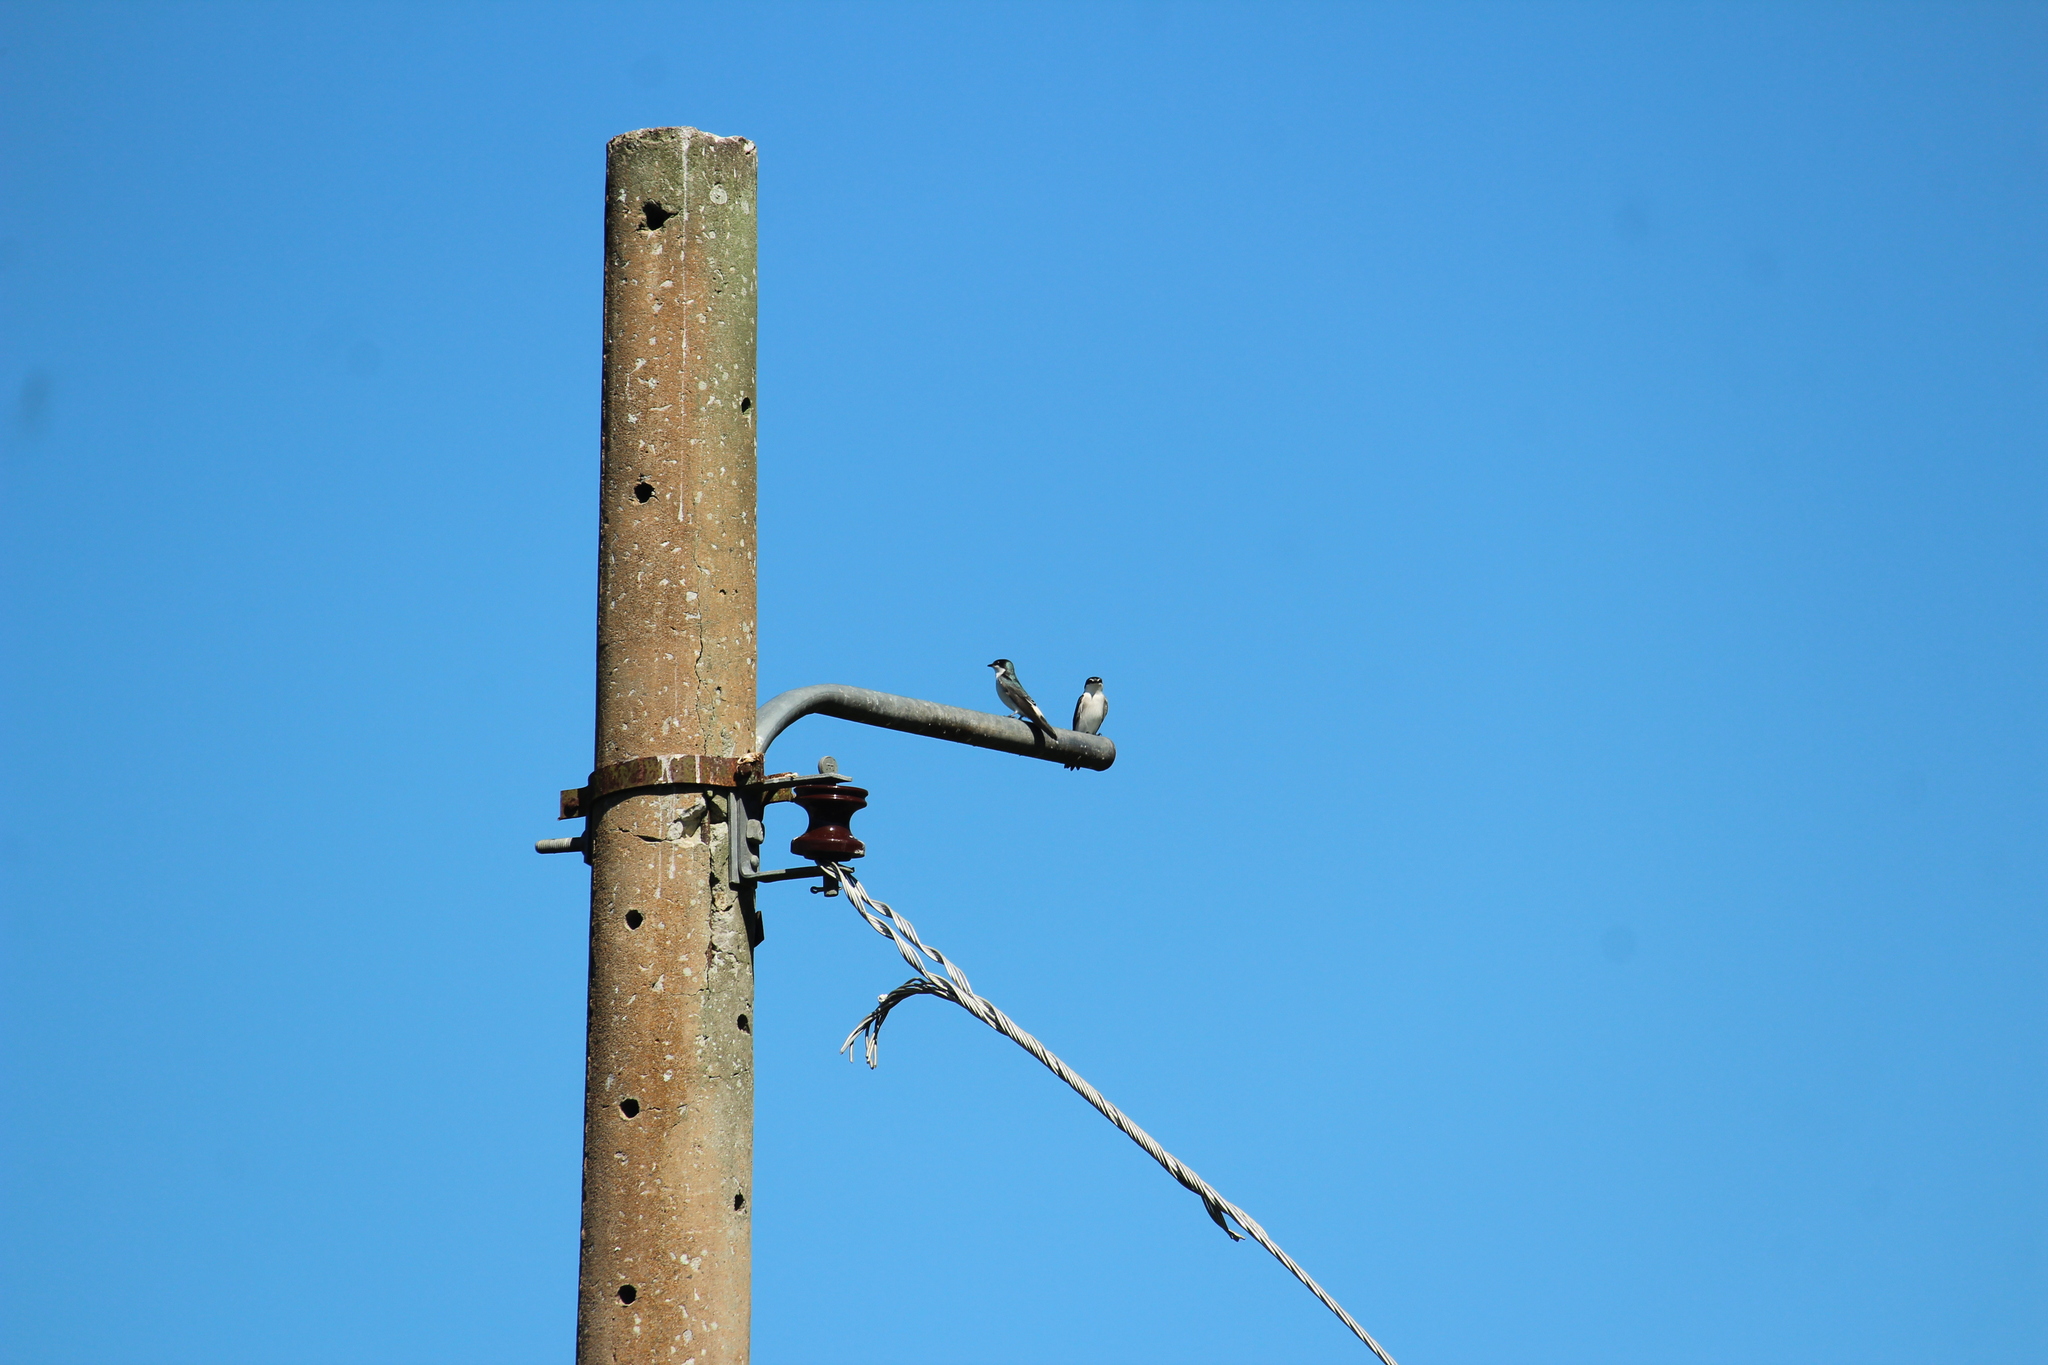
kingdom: Animalia
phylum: Chordata
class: Aves
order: Passeriformes
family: Hirundinidae
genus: Tachycineta
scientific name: Tachycineta albilinea
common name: Mangrove swallow
